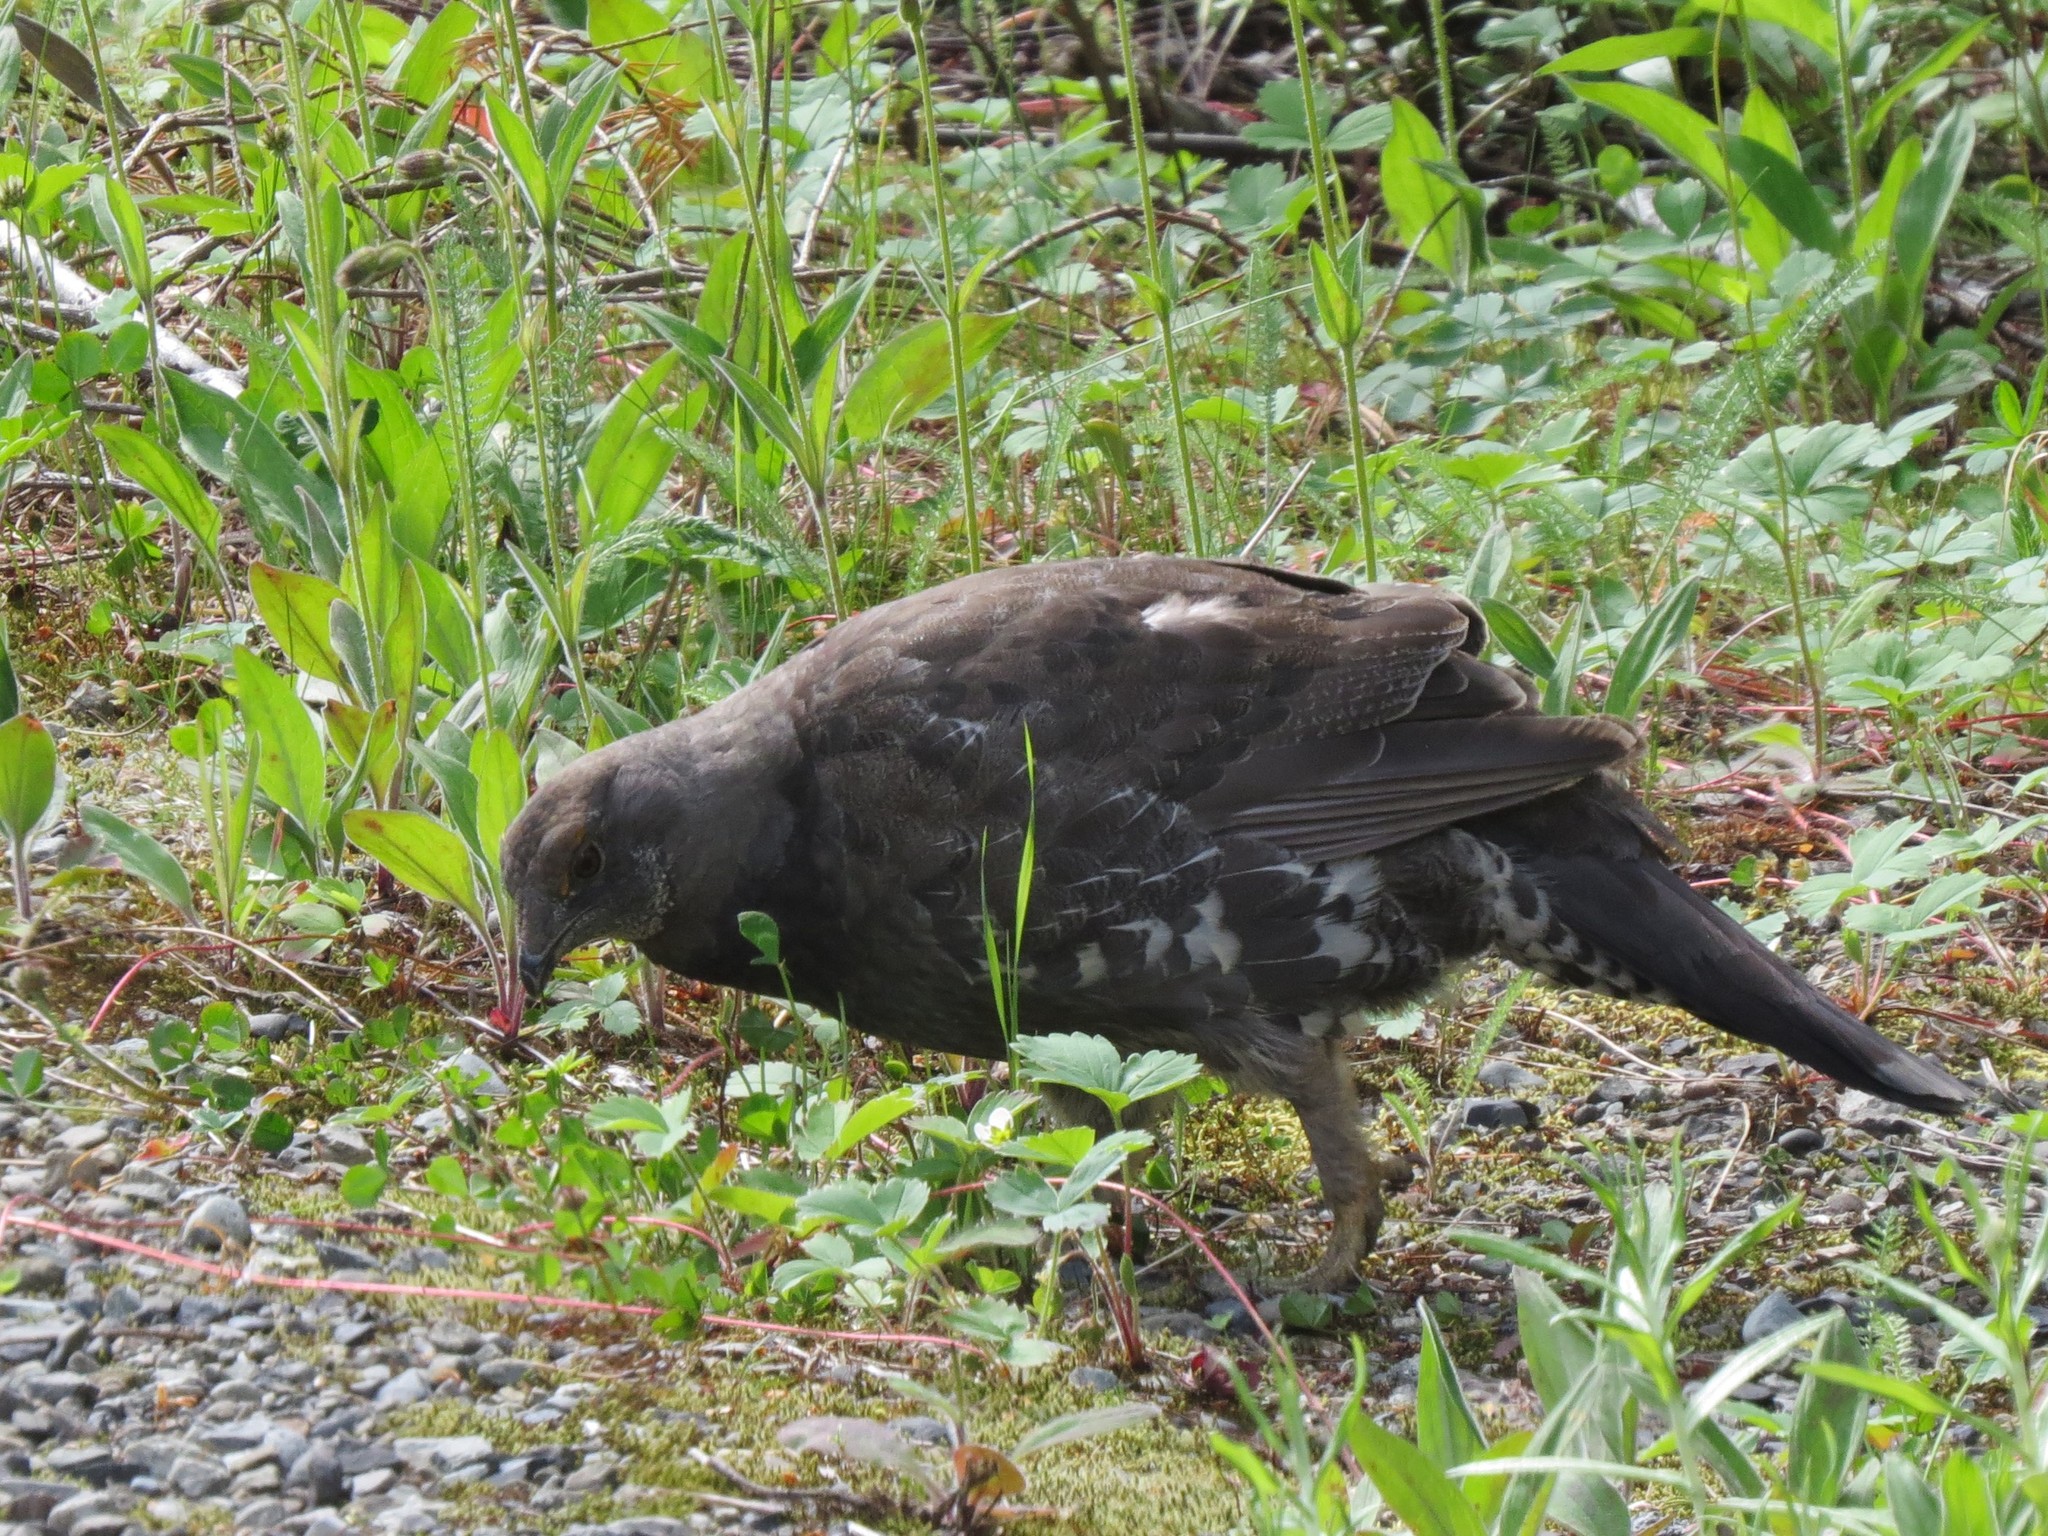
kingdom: Animalia
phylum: Chordata
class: Aves
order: Galliformes
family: Phasianidae
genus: Dendragapus
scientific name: Dendragapus fuliginosus
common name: Sooty grouse
